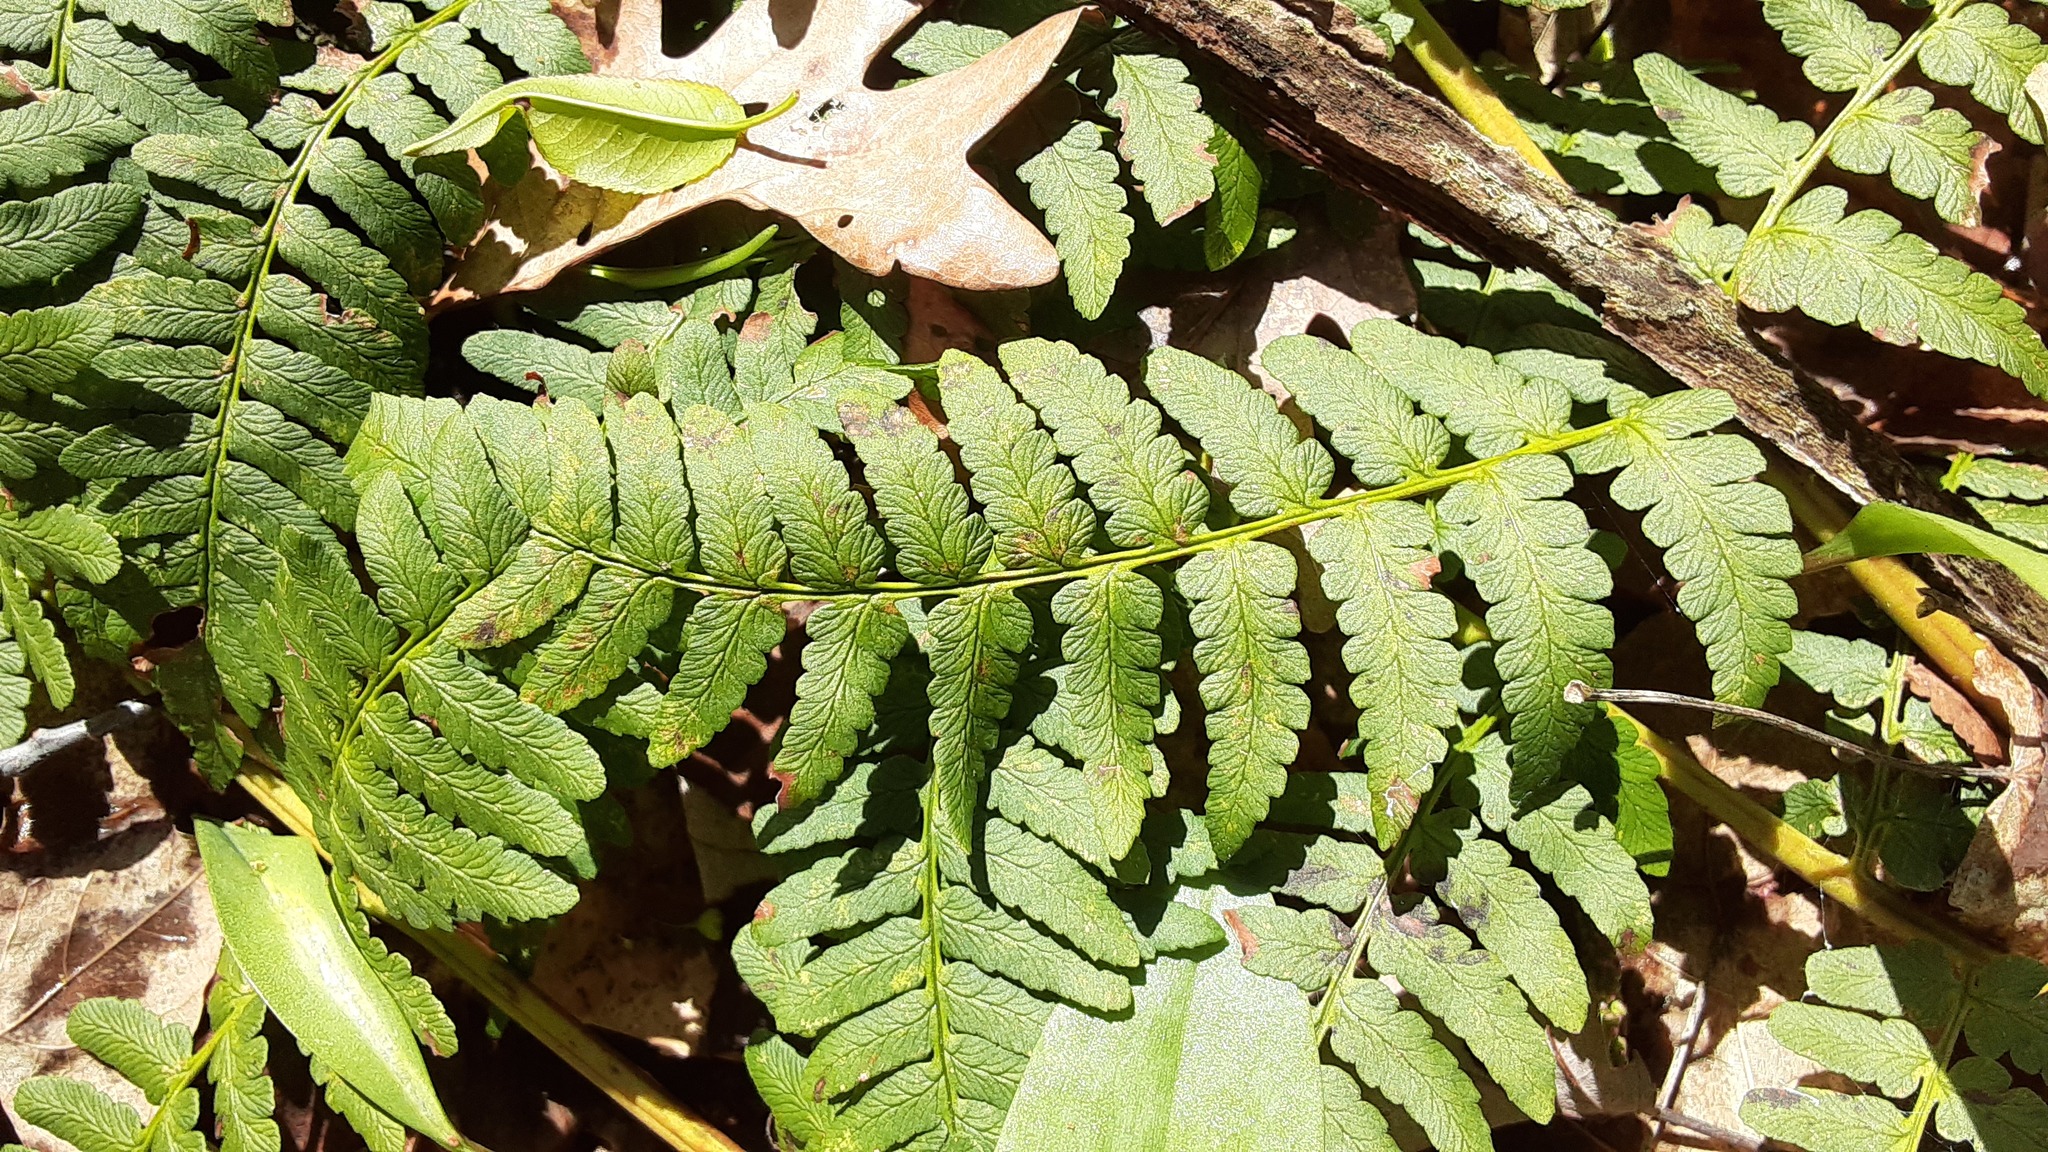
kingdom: Plantae
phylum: Tracheophyta
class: Polypodiopsida
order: Polypodiales
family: Dryopteridaceae
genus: Dryopteris
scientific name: Dryopteris marginalis
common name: Marginal wood fern
